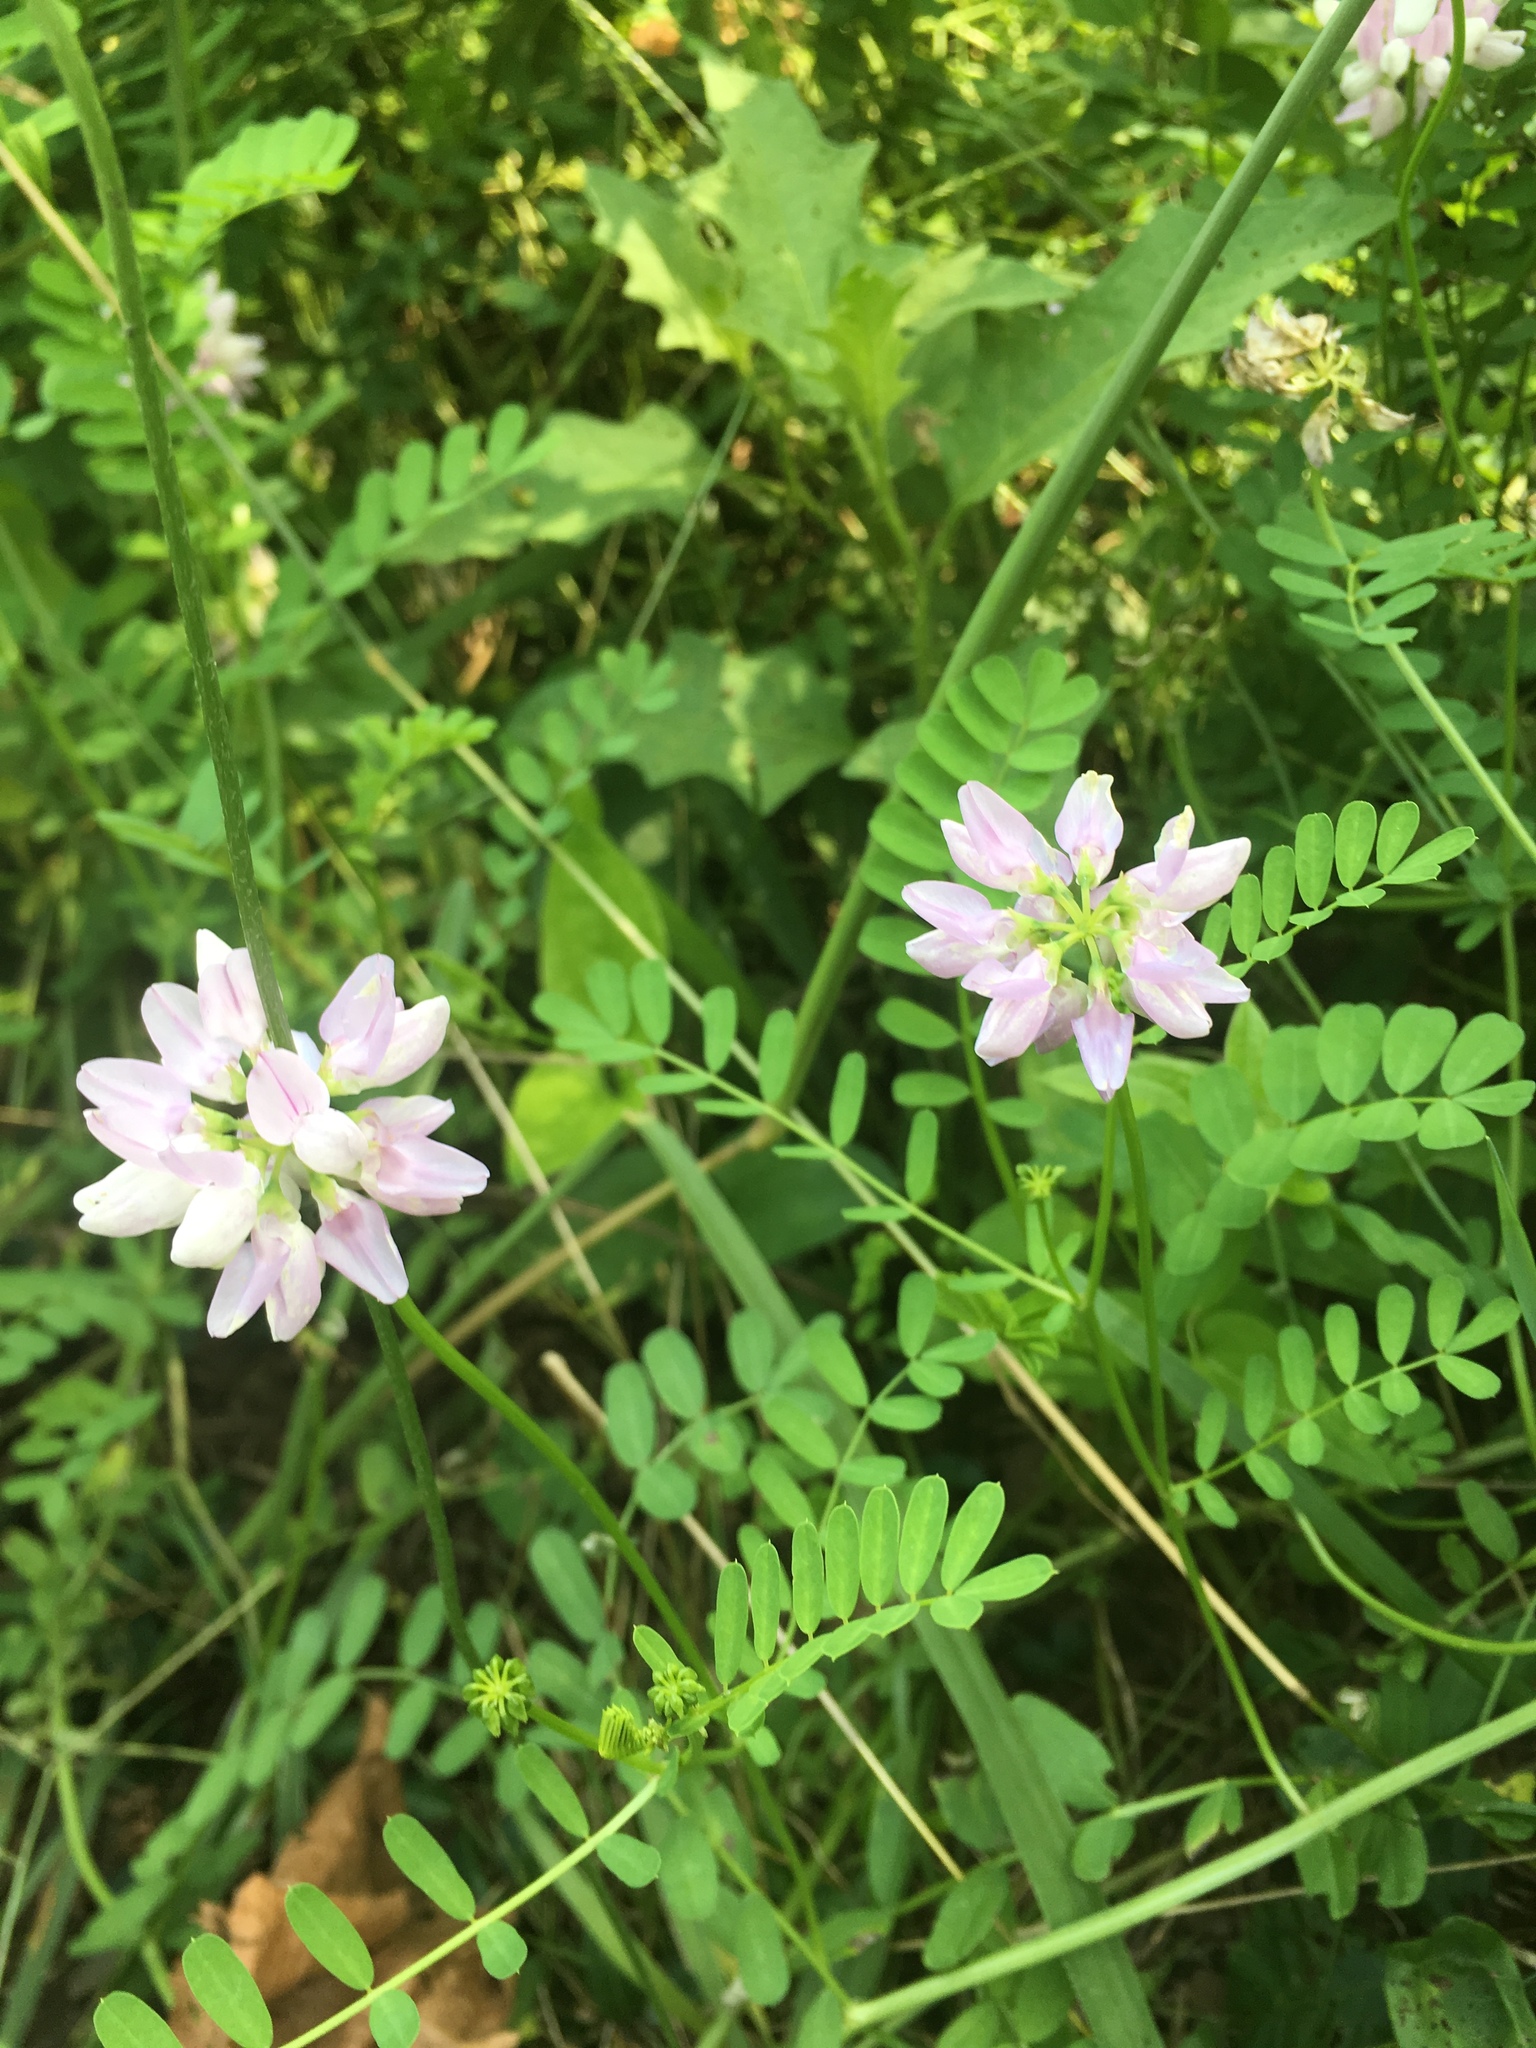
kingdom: Plantae
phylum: Tracheophyta
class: Magnoliopsida
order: Fabales
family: Fabaceae
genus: Coronilla
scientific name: Coronilla varia
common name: Crownvetch
